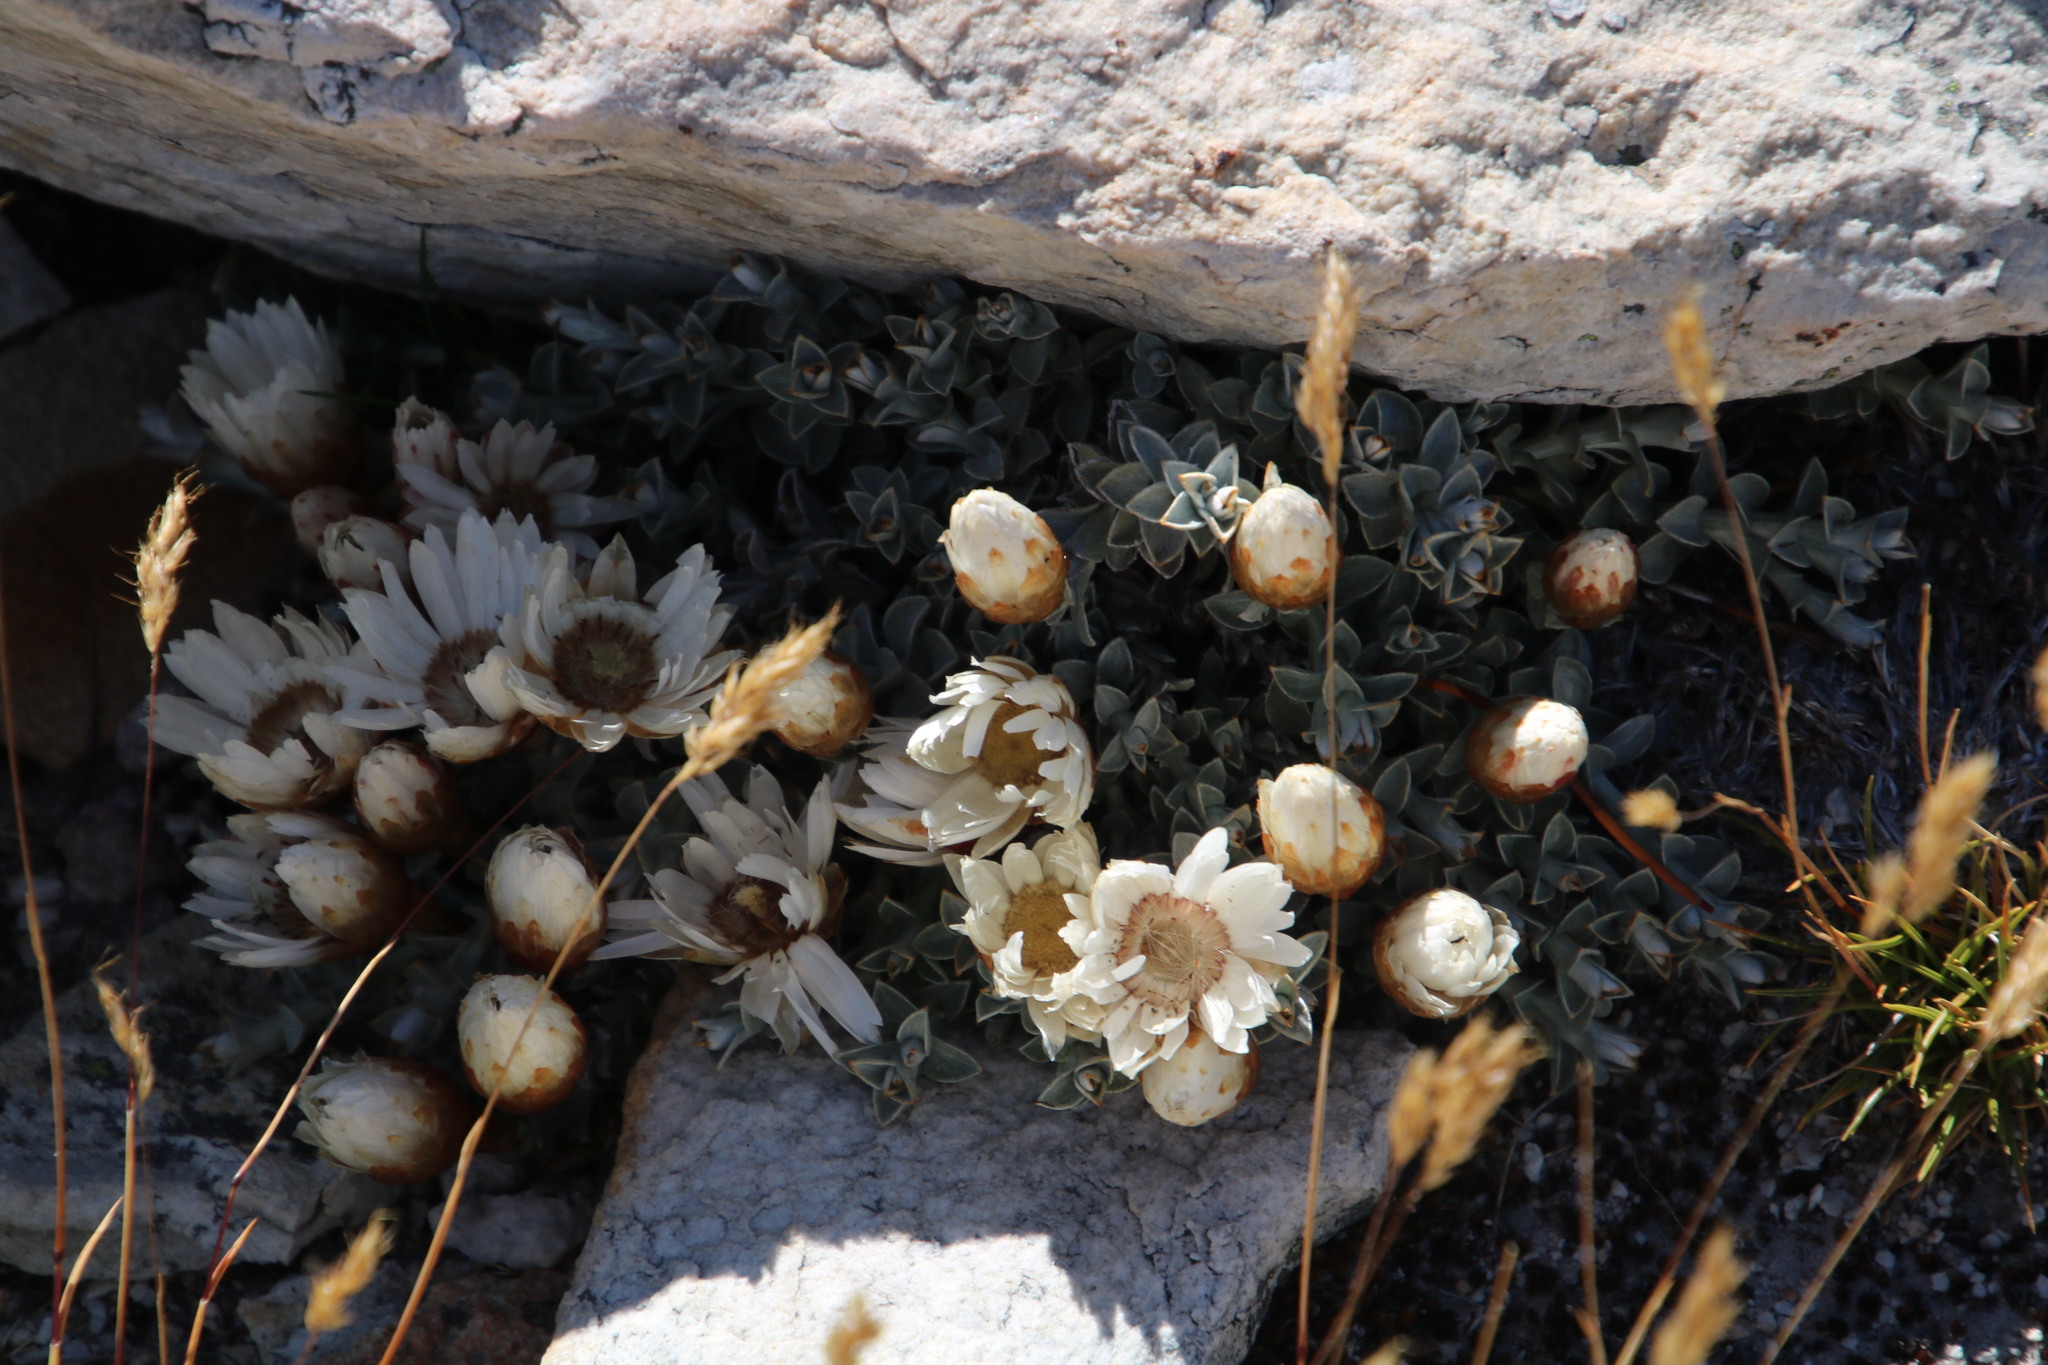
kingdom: Plantae
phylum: Tracheophyta
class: Magnoliopsida
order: Asterales
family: Asteraceae
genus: Helichrysum
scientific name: Helichrysum stoloniferum
